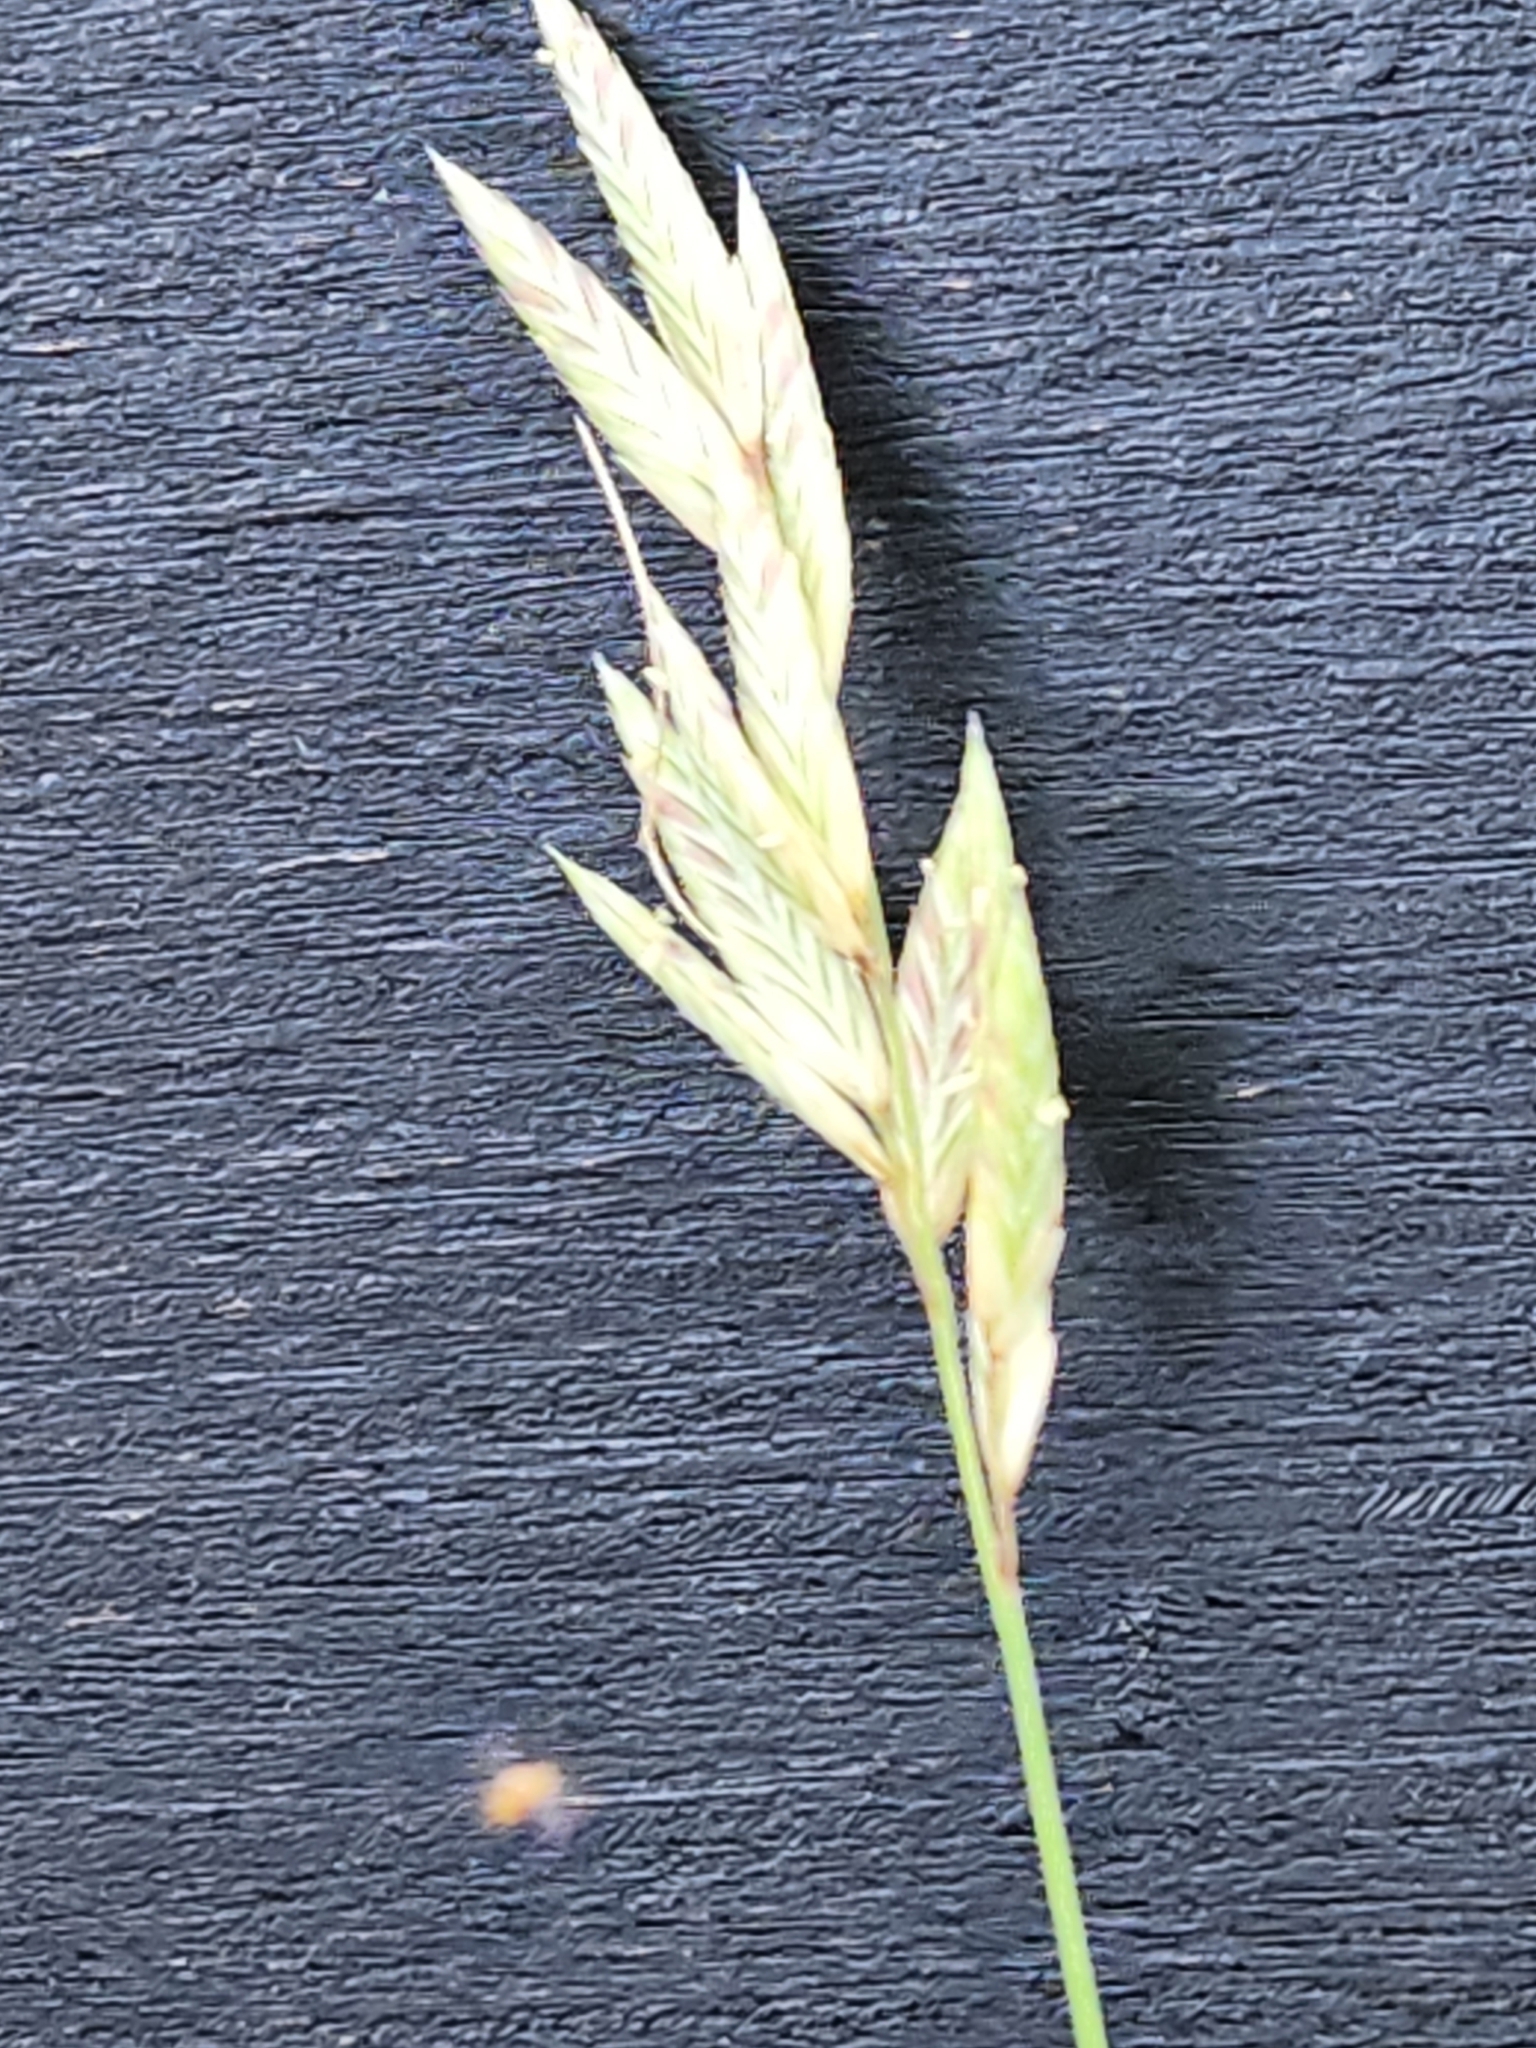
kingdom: Plantae
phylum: Tracheophyta
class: Liliopsida
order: Poales
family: Poaceae
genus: Erioneuron
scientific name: Erioneuron pilosum
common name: Hairy woolly grass
